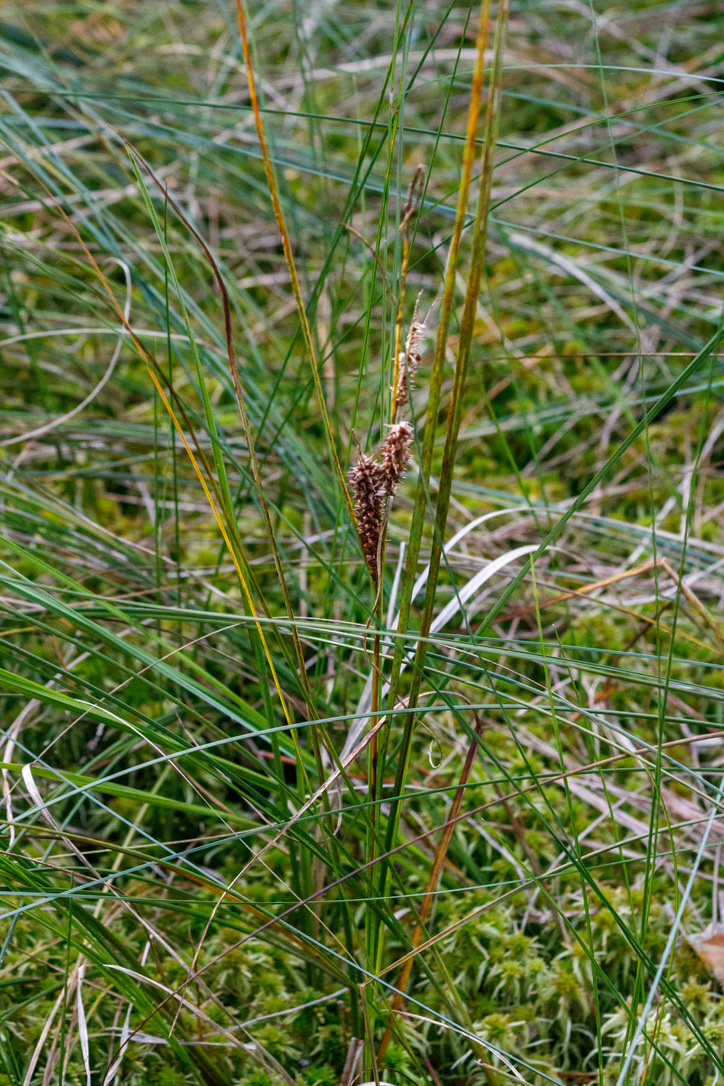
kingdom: Plantae
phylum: Tracheophyta
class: Liliopsida
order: Poales
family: Cyperaceae
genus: Carex
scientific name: Carex rostrata
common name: Bottle sedge
